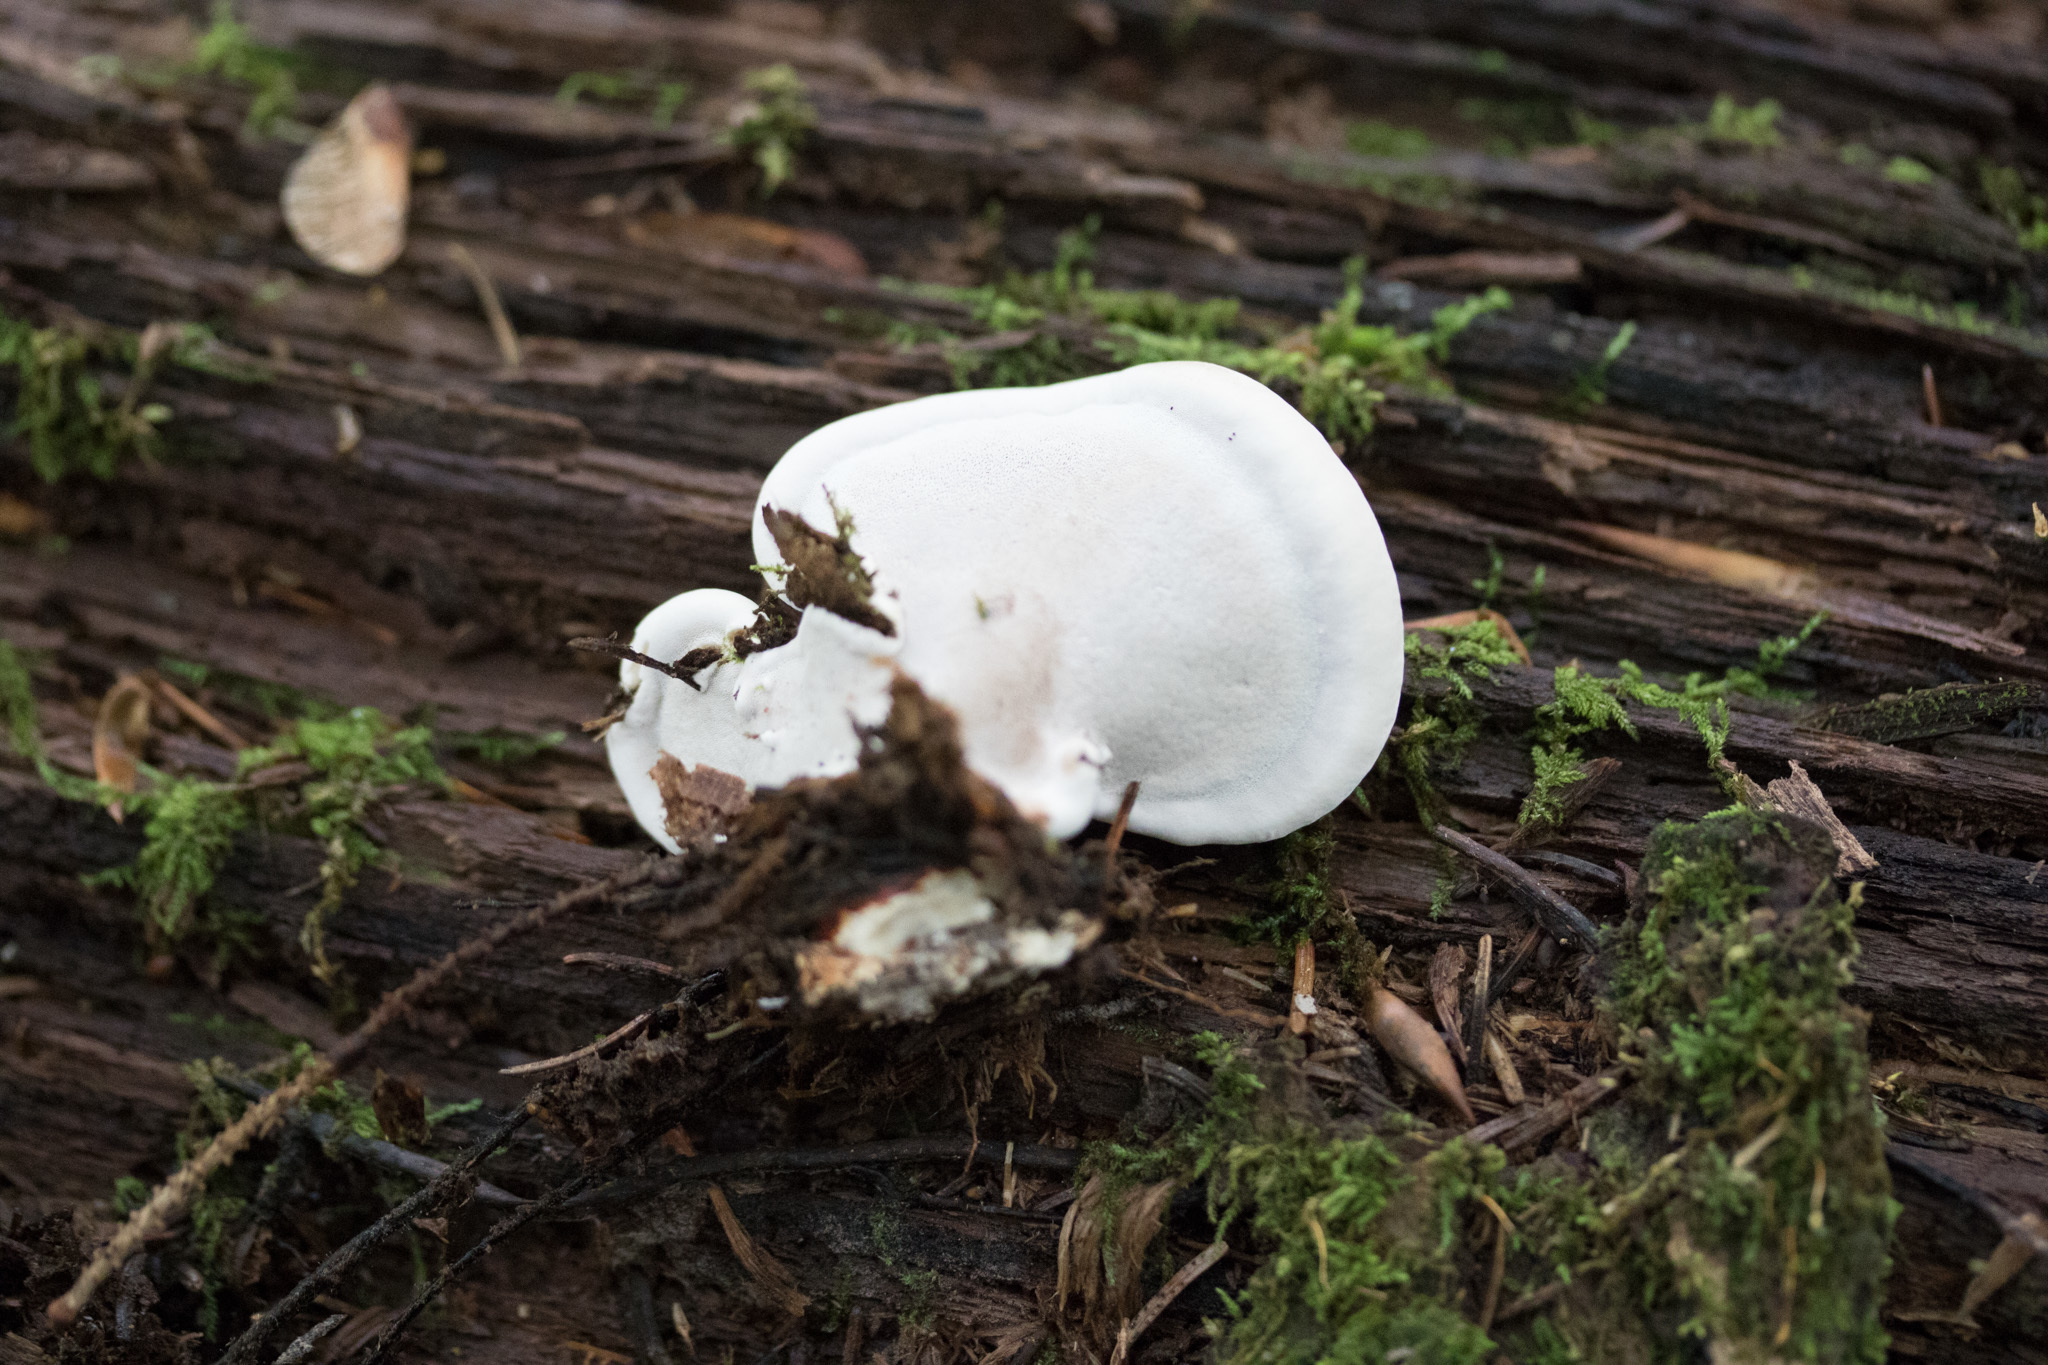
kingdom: Fungi
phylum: Basidiomycota
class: Agaricomycetes
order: Polyporales
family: Polyporaceae
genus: Ganoderma
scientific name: Ganoderma applanatum
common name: Artist's bracket
